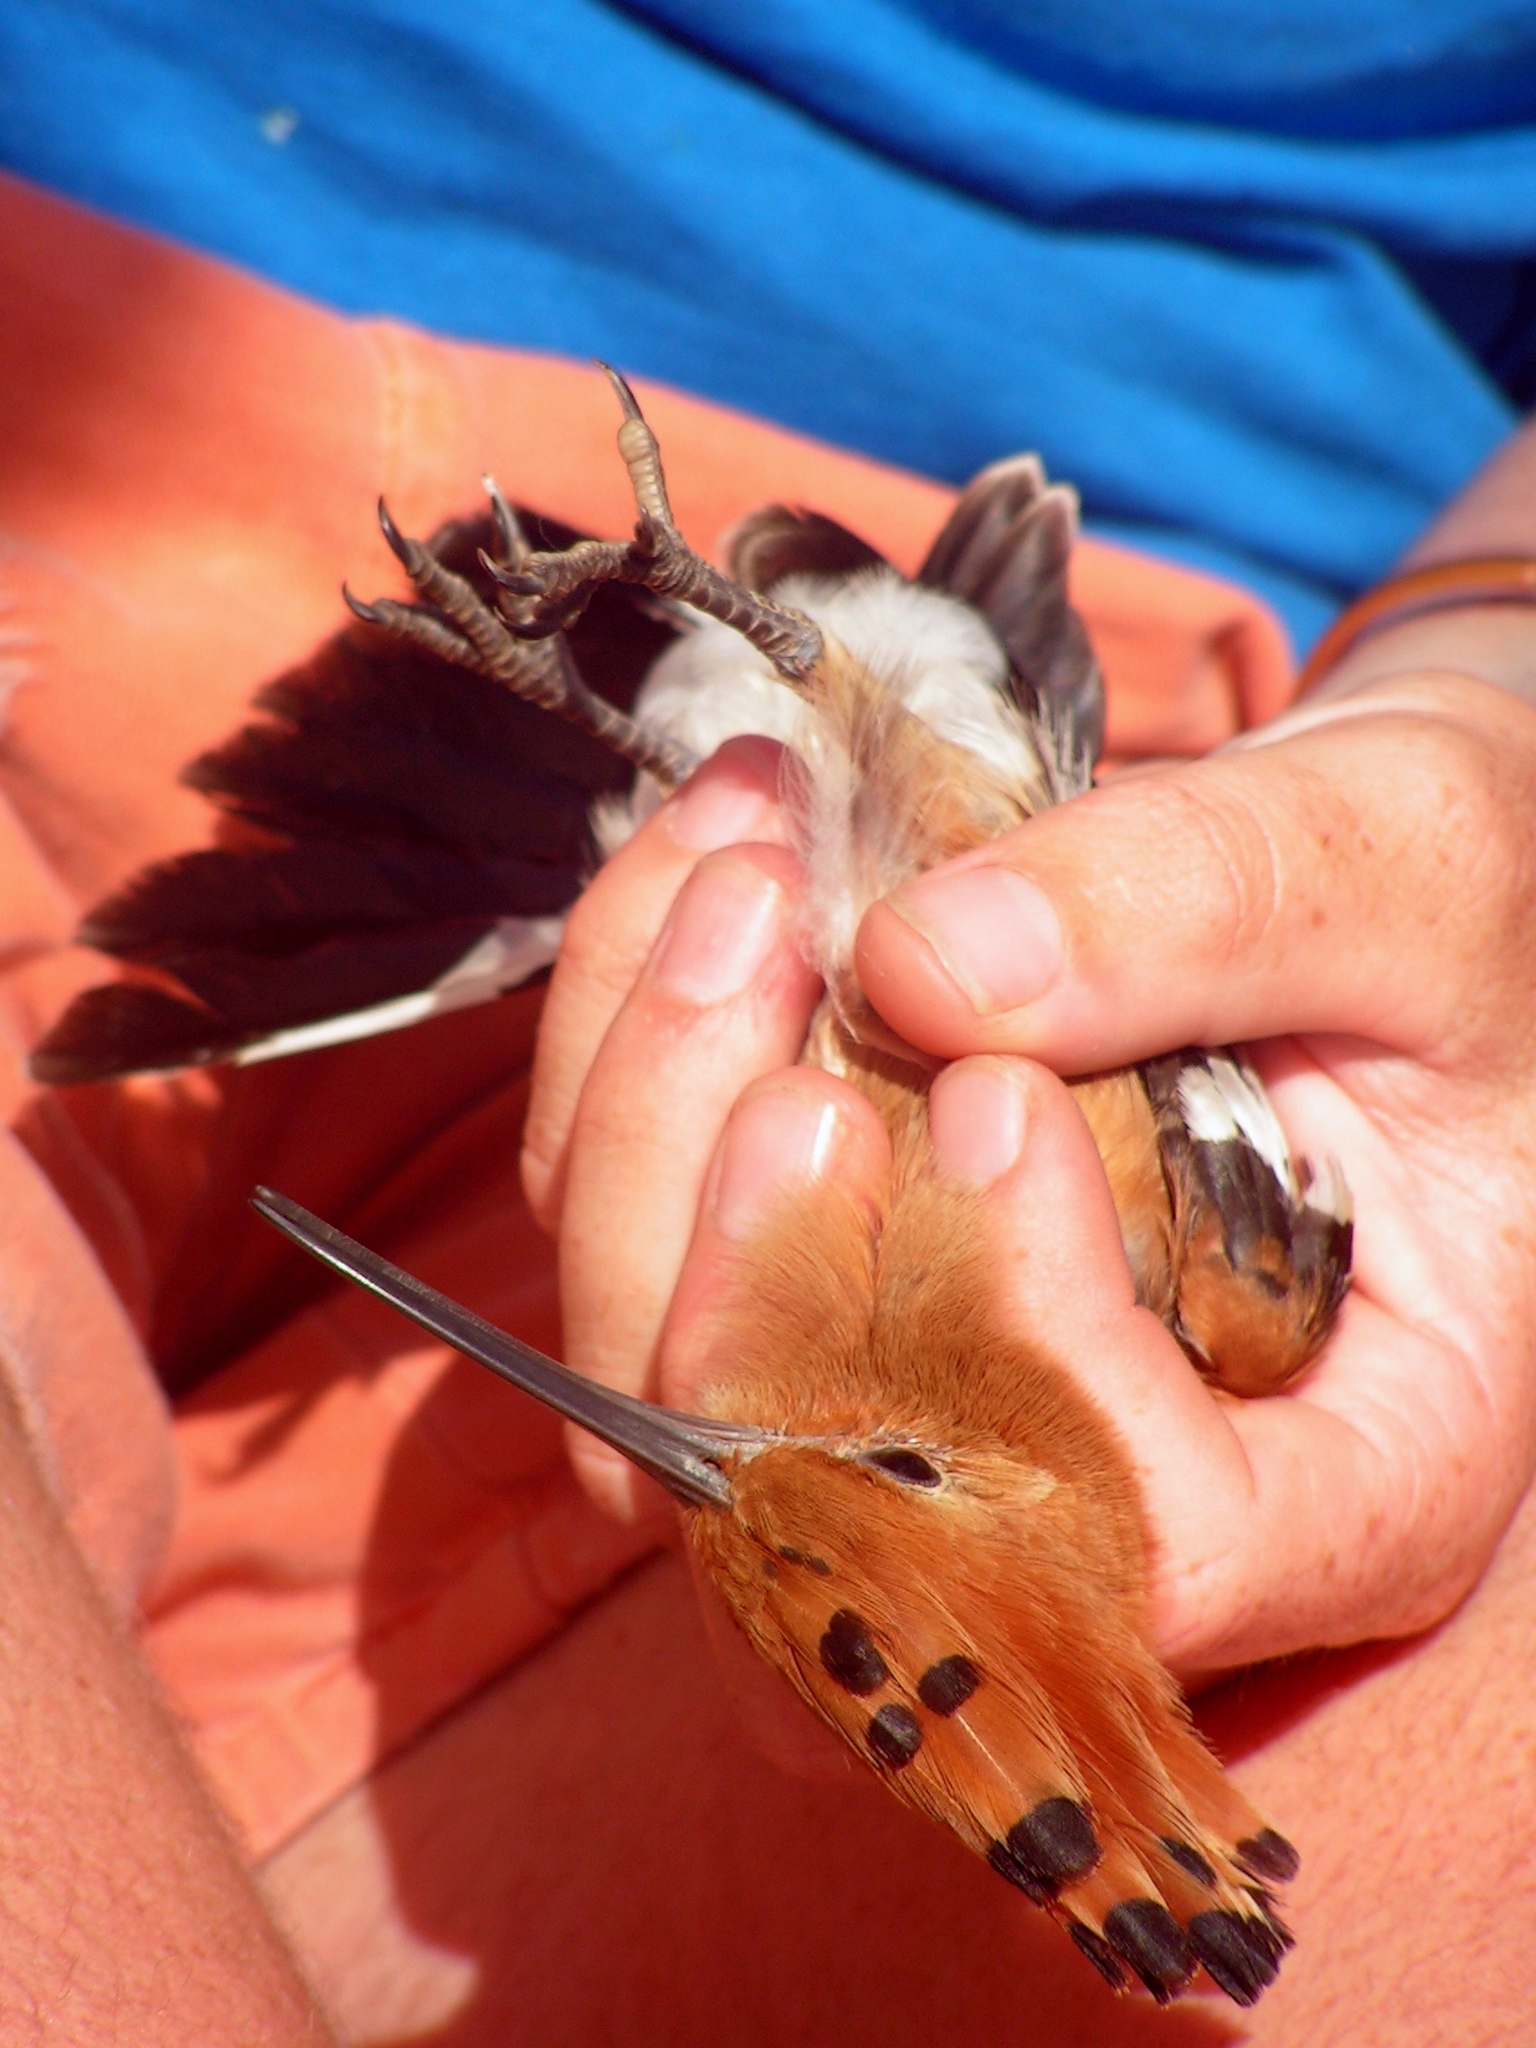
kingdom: Animalia
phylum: Chordata
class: Aves
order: Bucerotiformes
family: Upupidae
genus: Upupa
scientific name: Upupa africana
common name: African hoopoe
